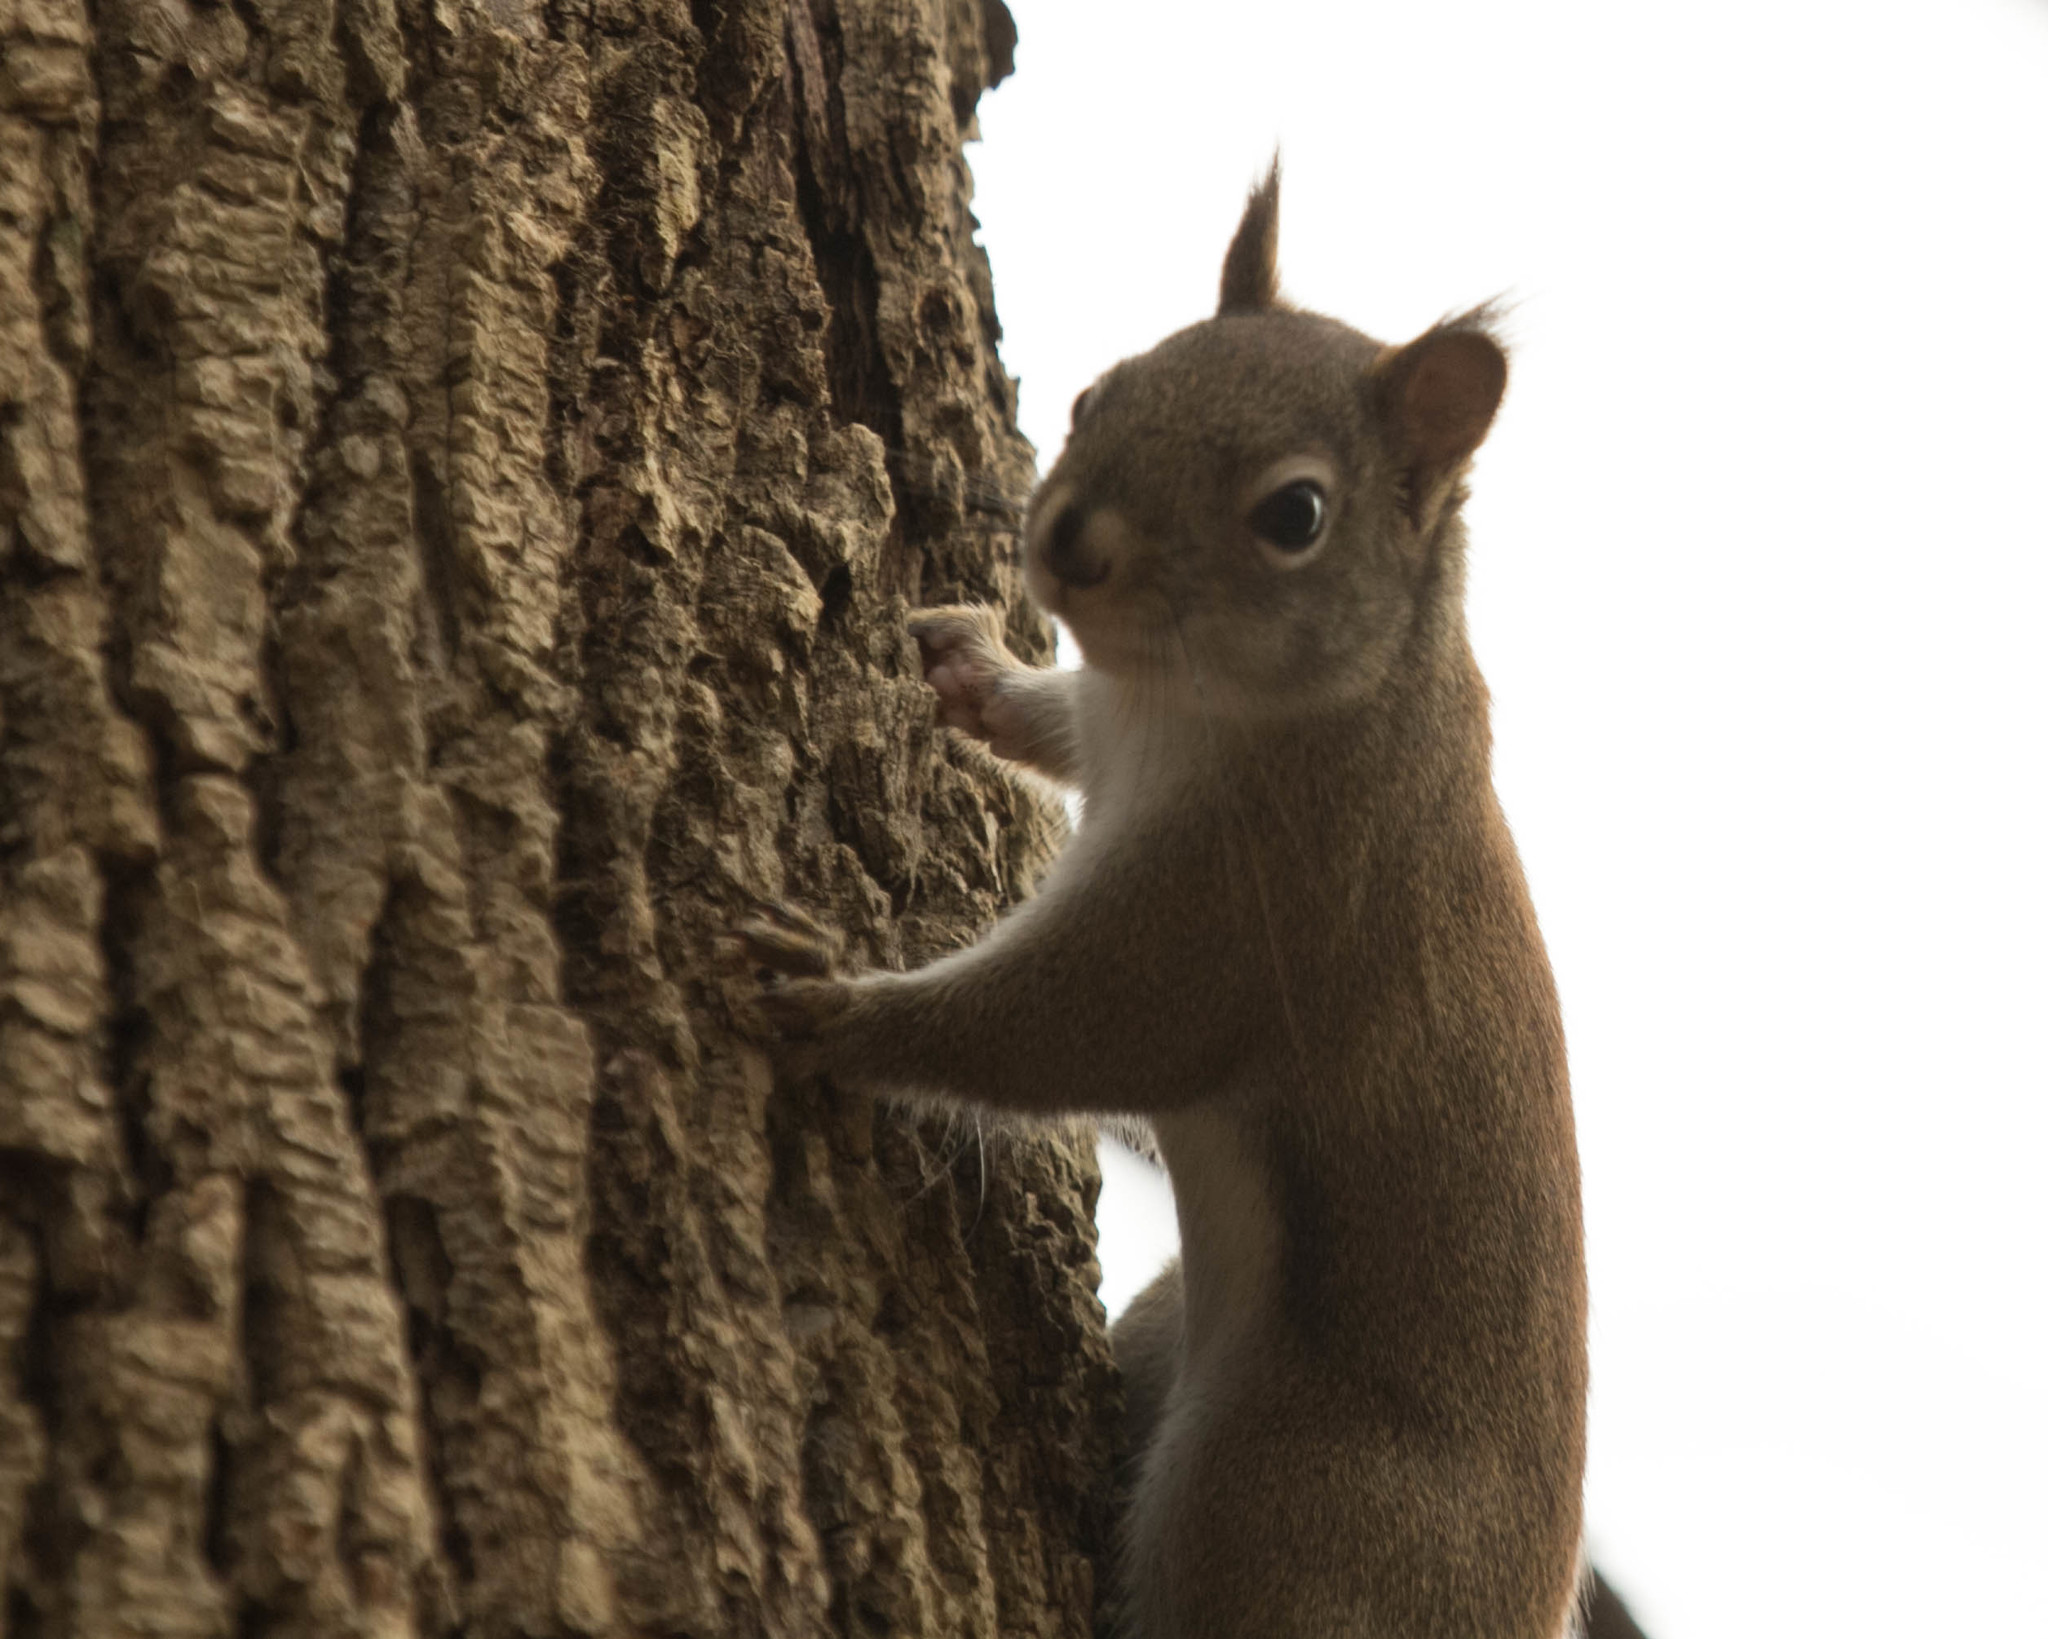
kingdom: Animalia
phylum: Chordata
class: Mammalia
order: Rodentia
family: Sciuridae
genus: Tamiasciurus
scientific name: Tamiasciurus hudsonicus
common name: Red squirrel
